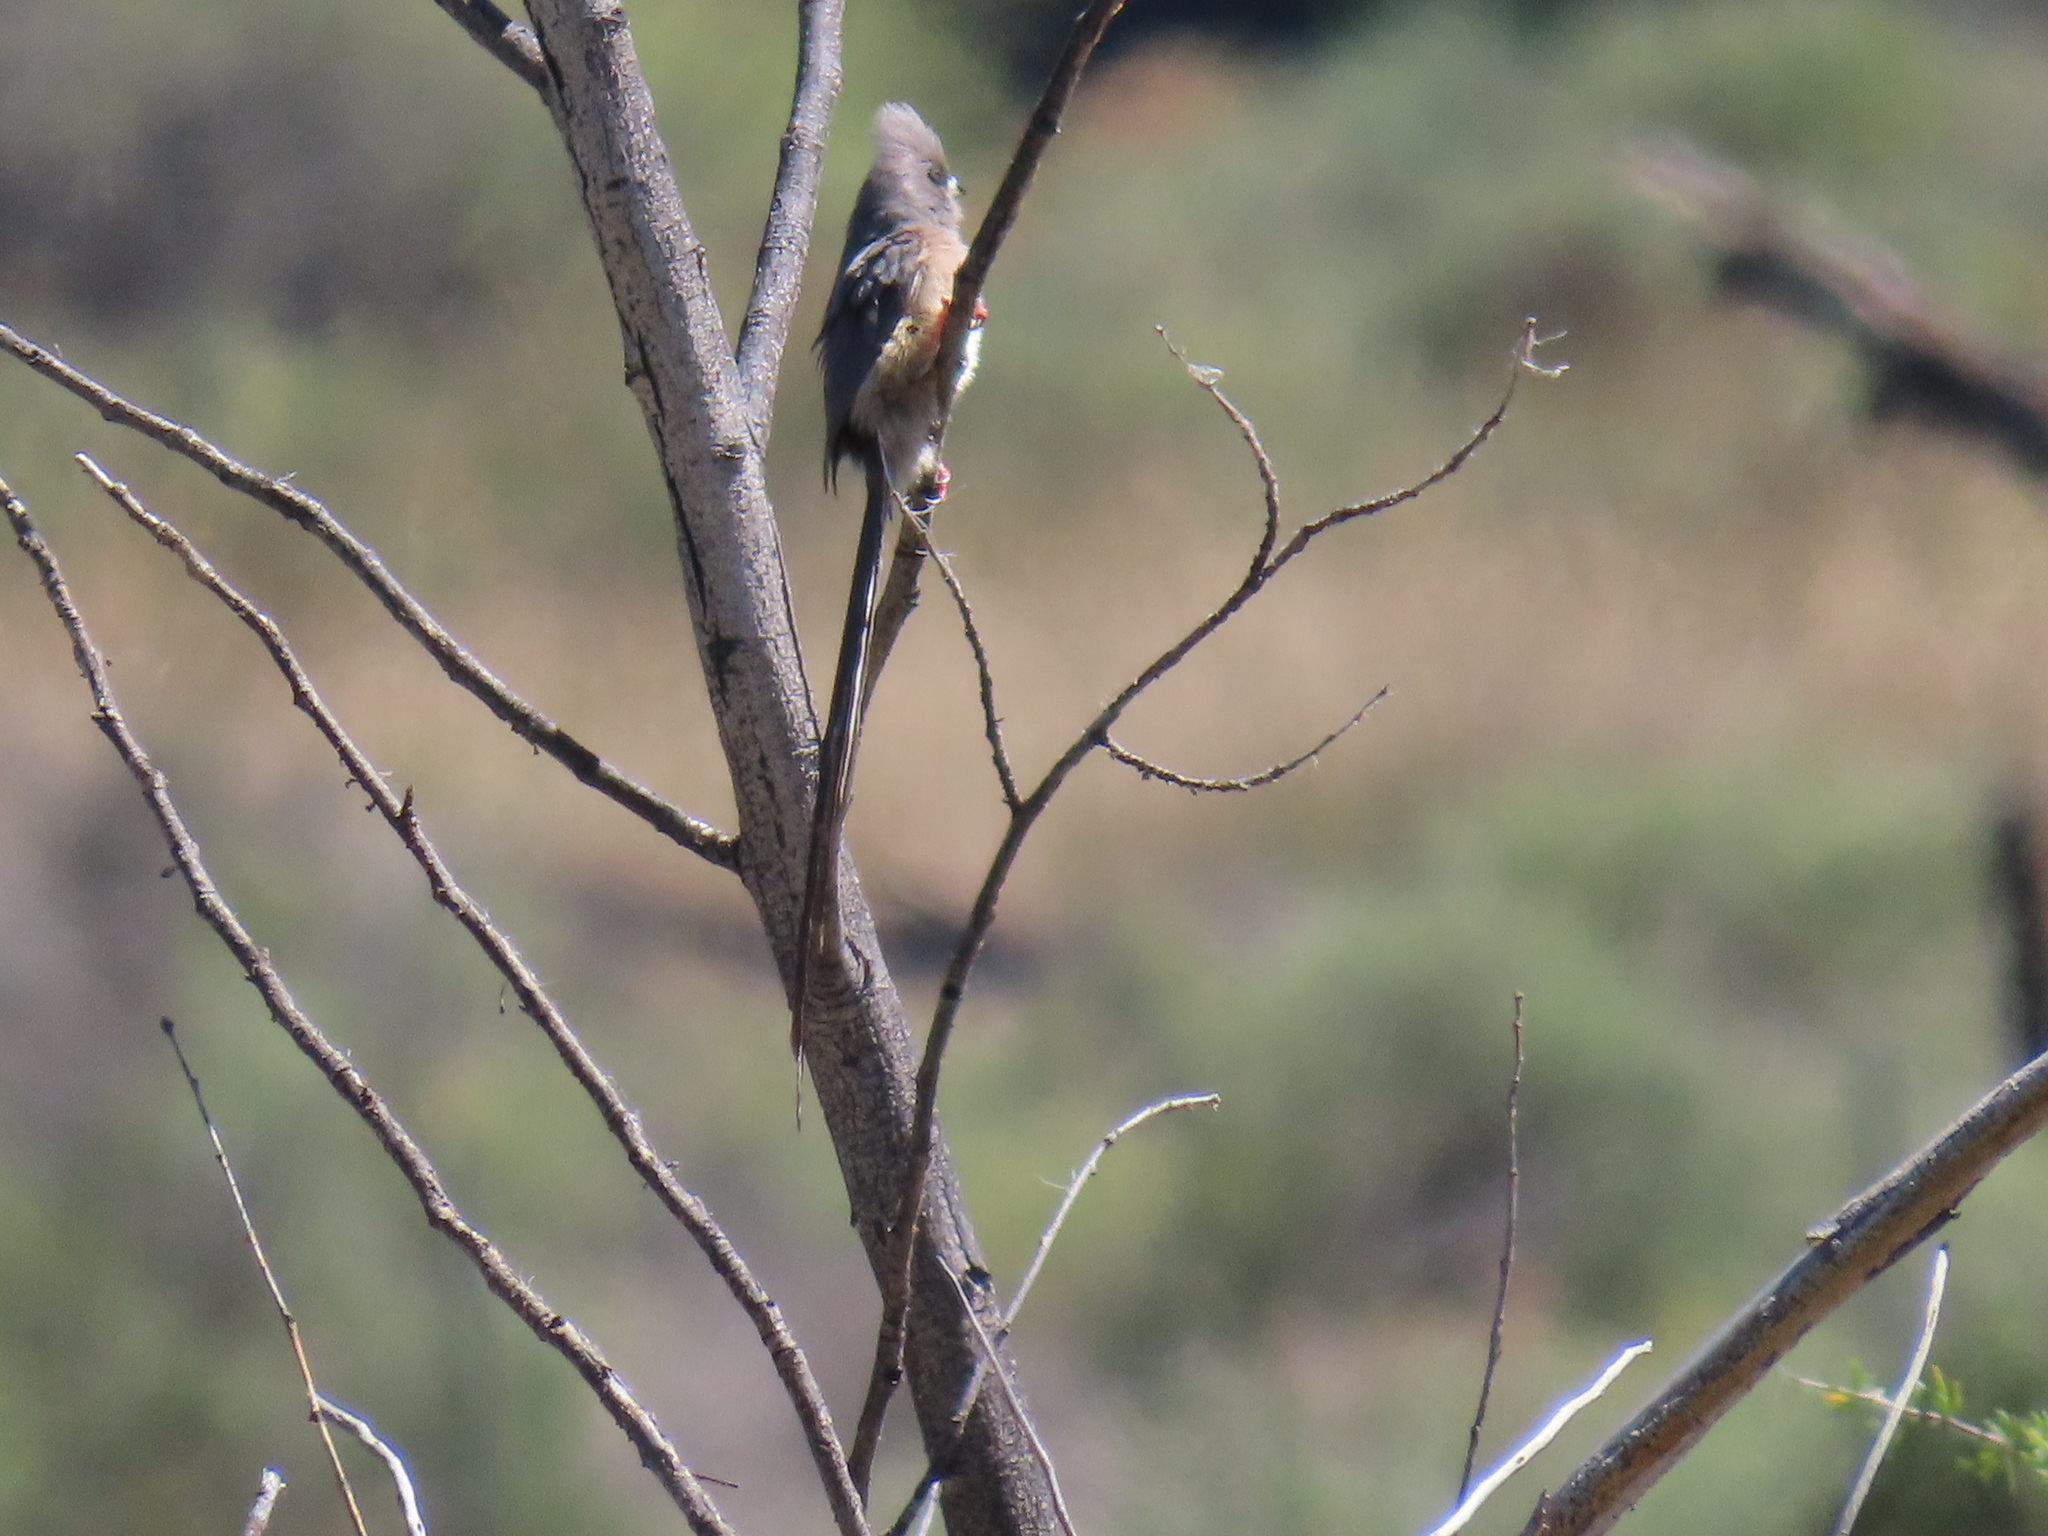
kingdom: Animalia
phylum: Chordata
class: Aves
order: Coliiformes
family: Coliidae
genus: Colius
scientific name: Colius colius
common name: White-backed mousebird
